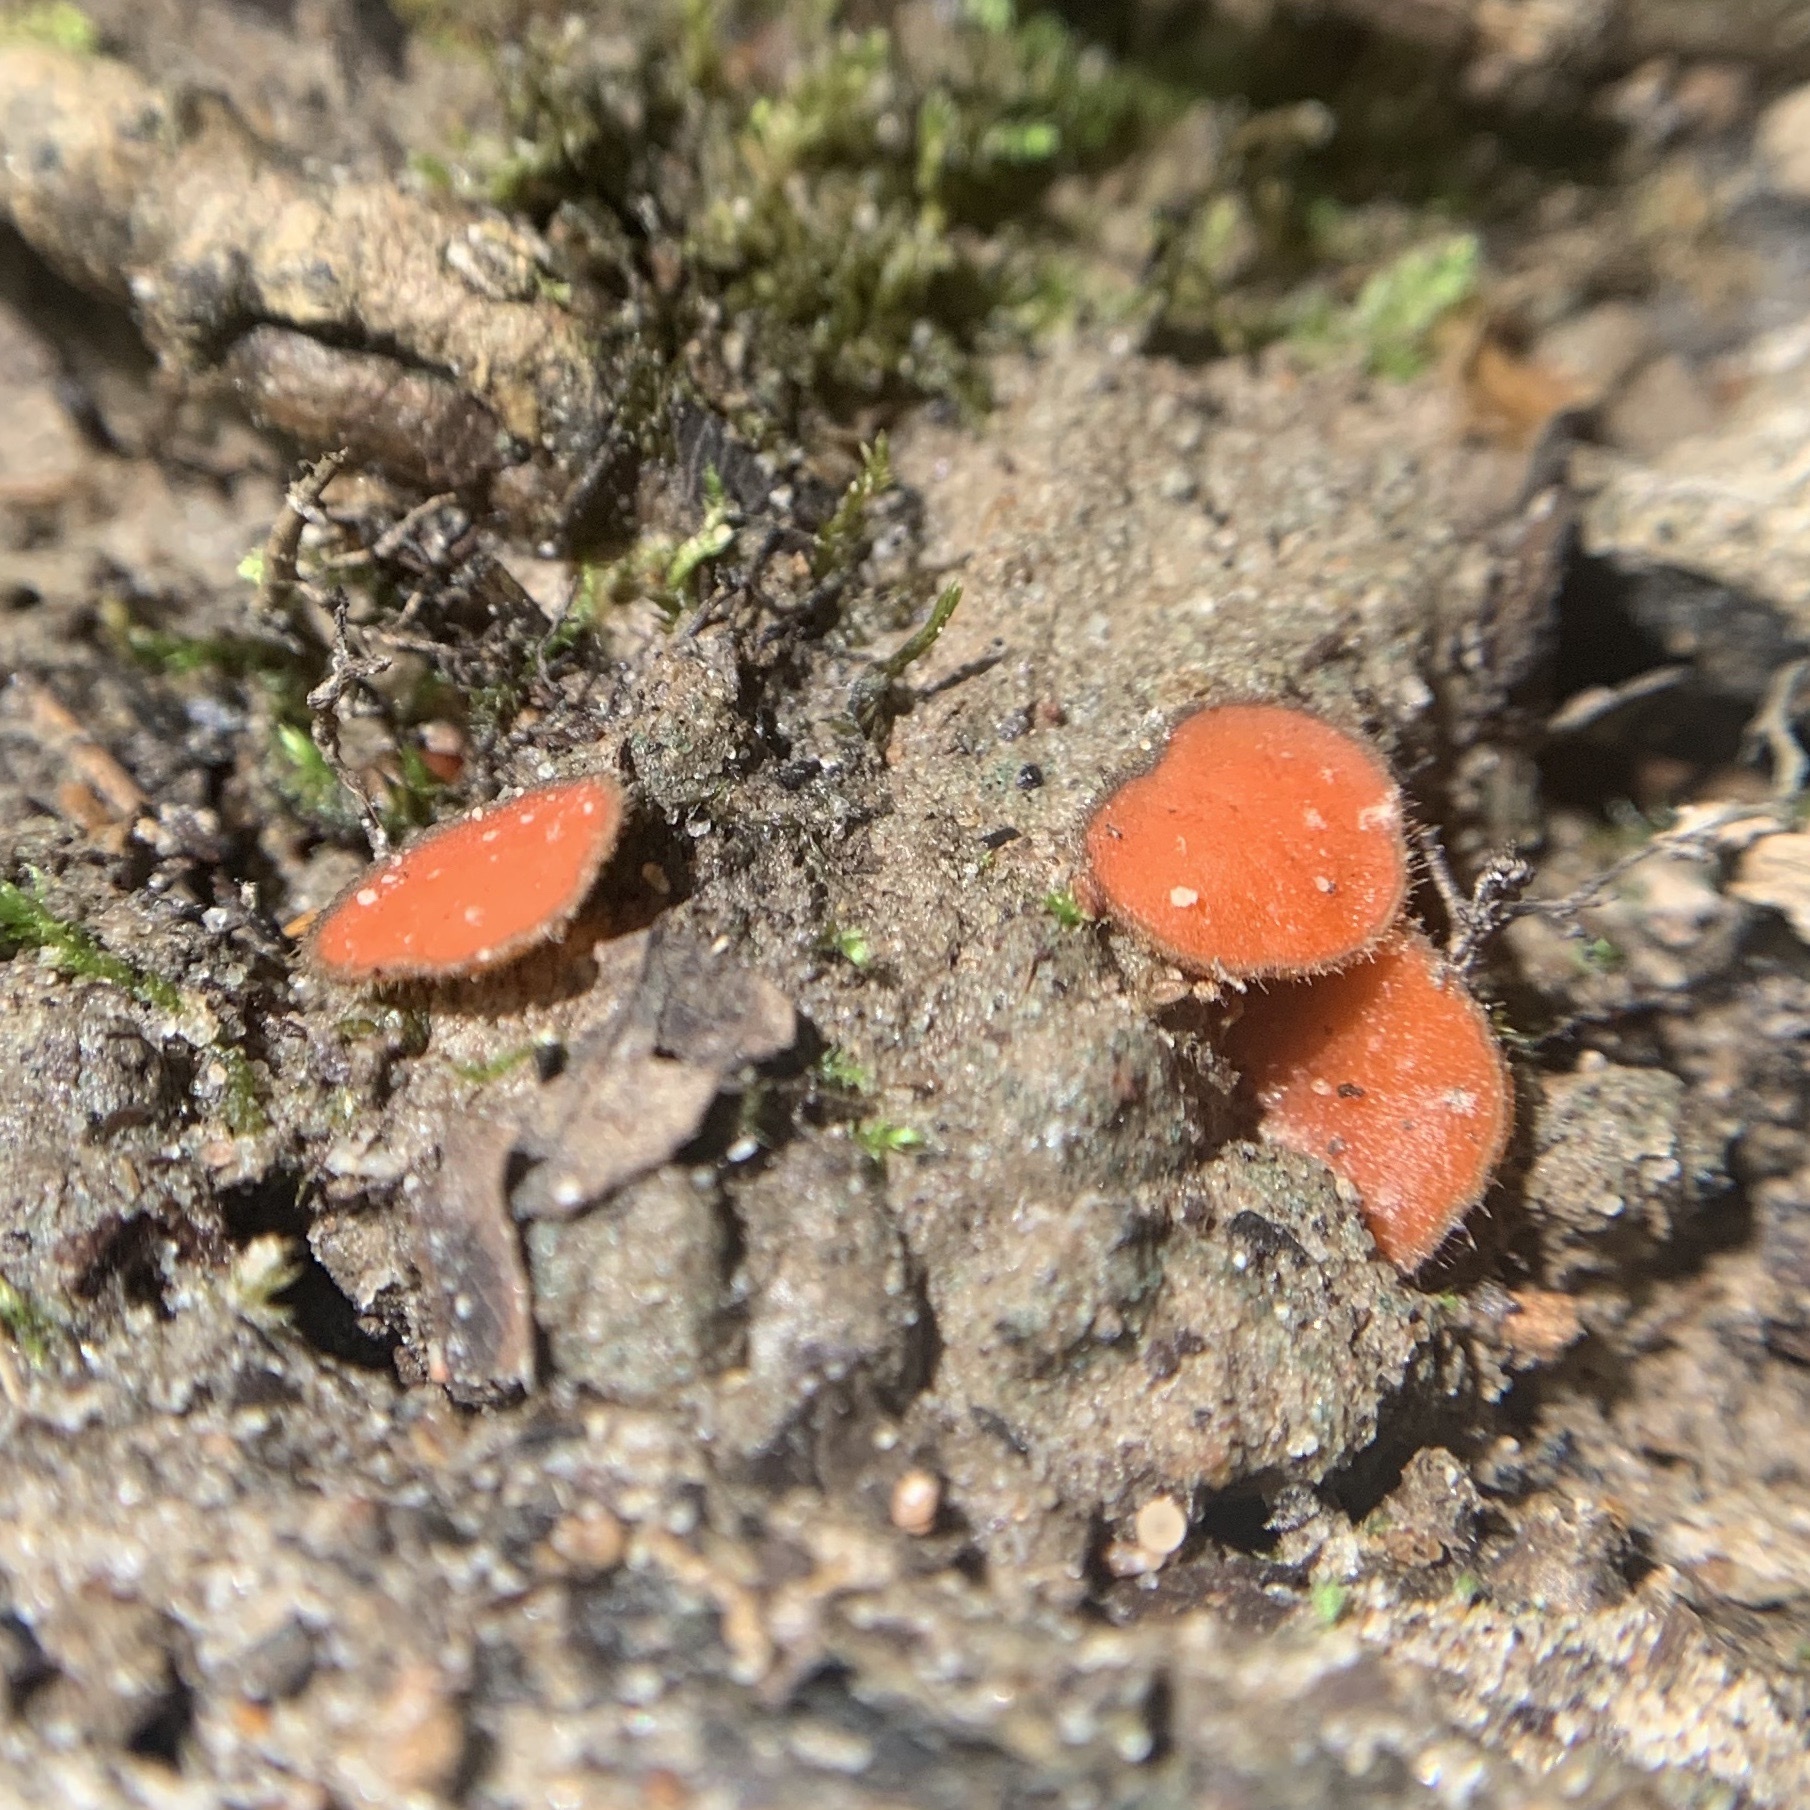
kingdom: Fungi
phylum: Ascomycota
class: Pezizomycetes
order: Pezizales
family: Pyronemataceae
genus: Scutellinia
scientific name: Scutellinia
